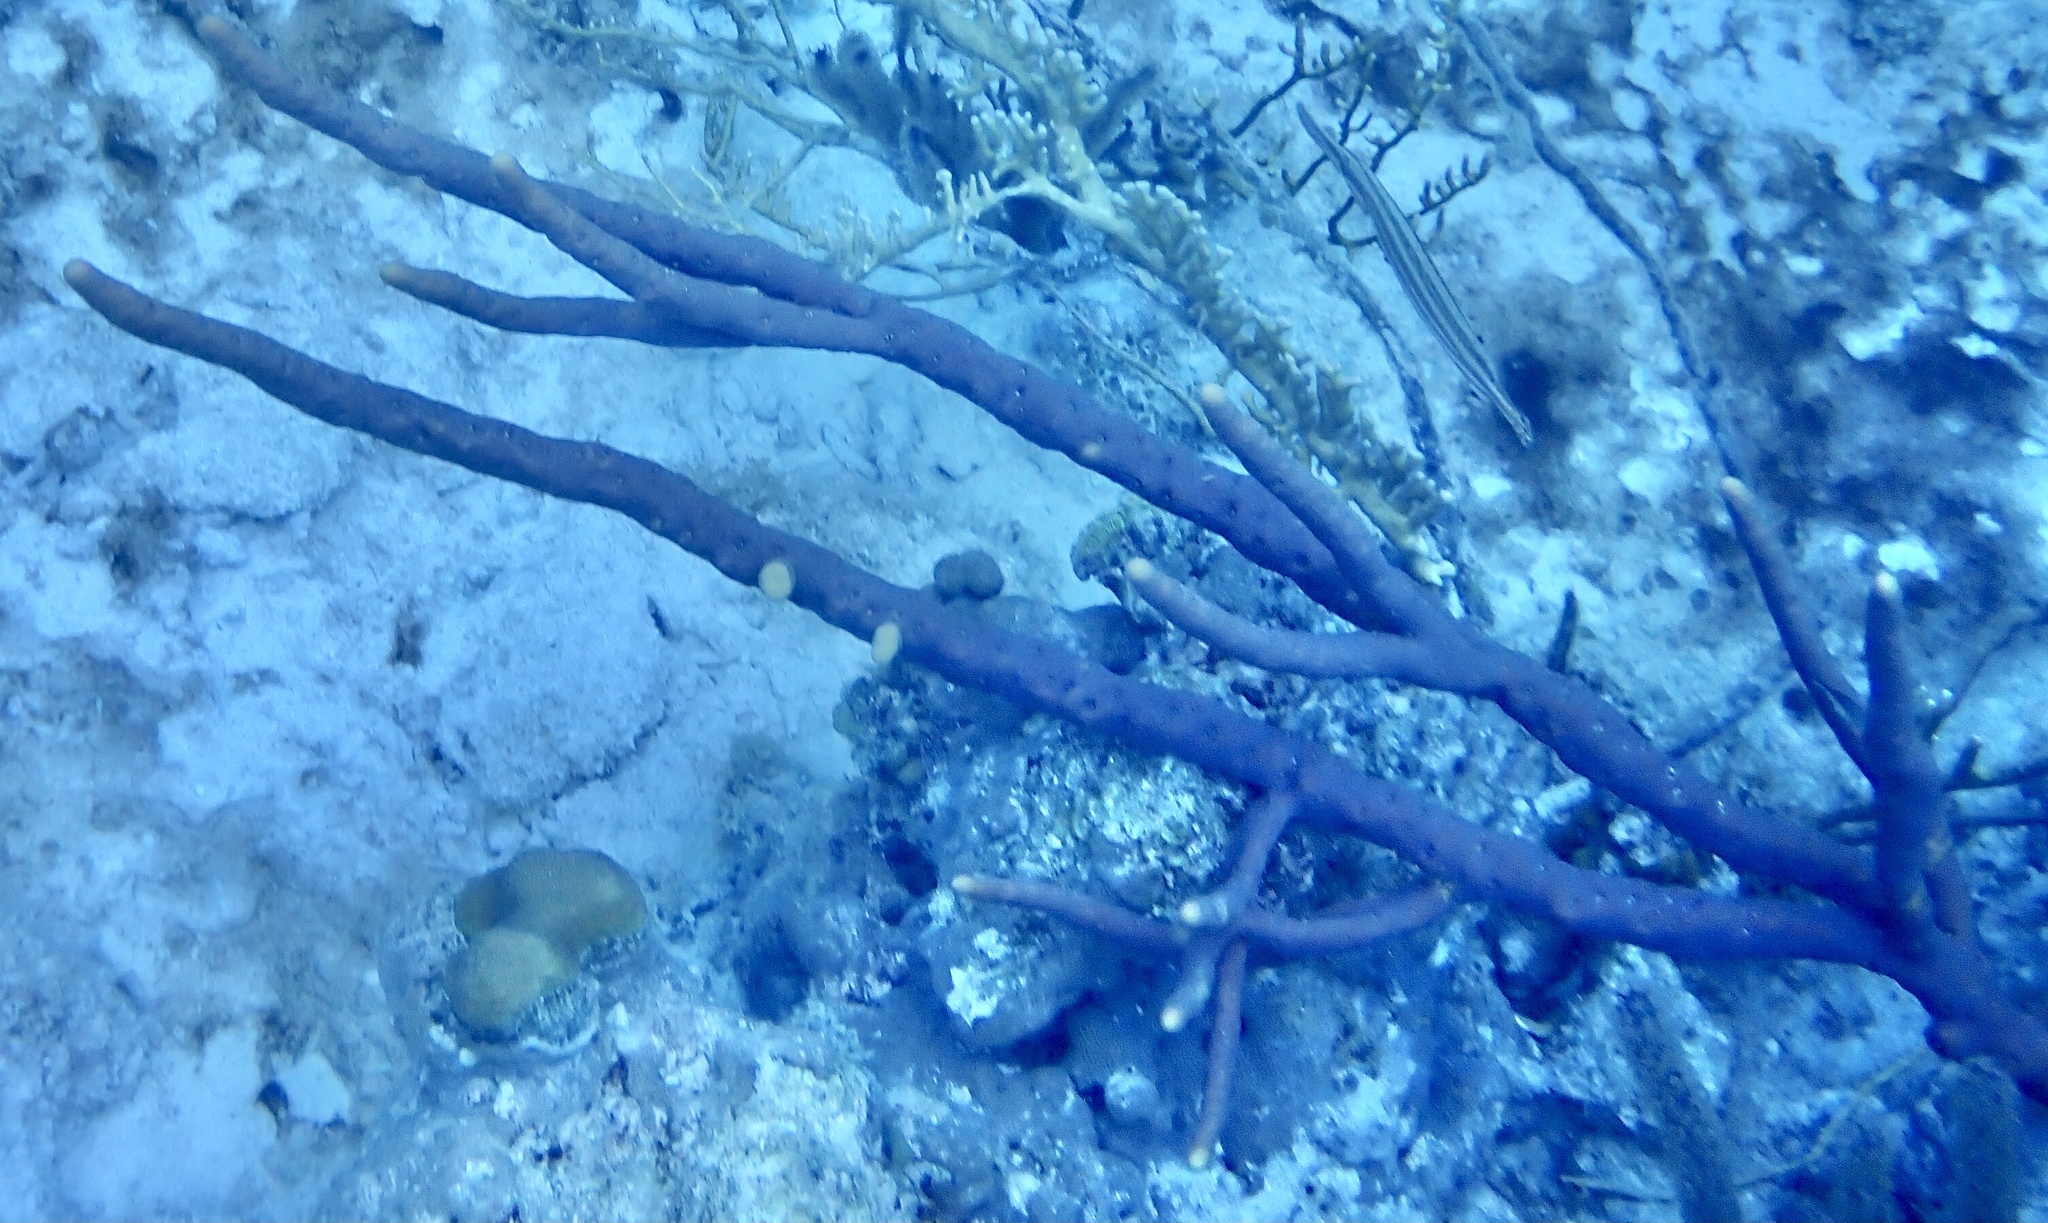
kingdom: Animalia
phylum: Porifera
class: Demospongiae
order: Verongiida
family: Aplysinidae
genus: Aplysina
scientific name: Aplysina cauliformis
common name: Branching candle sponge
